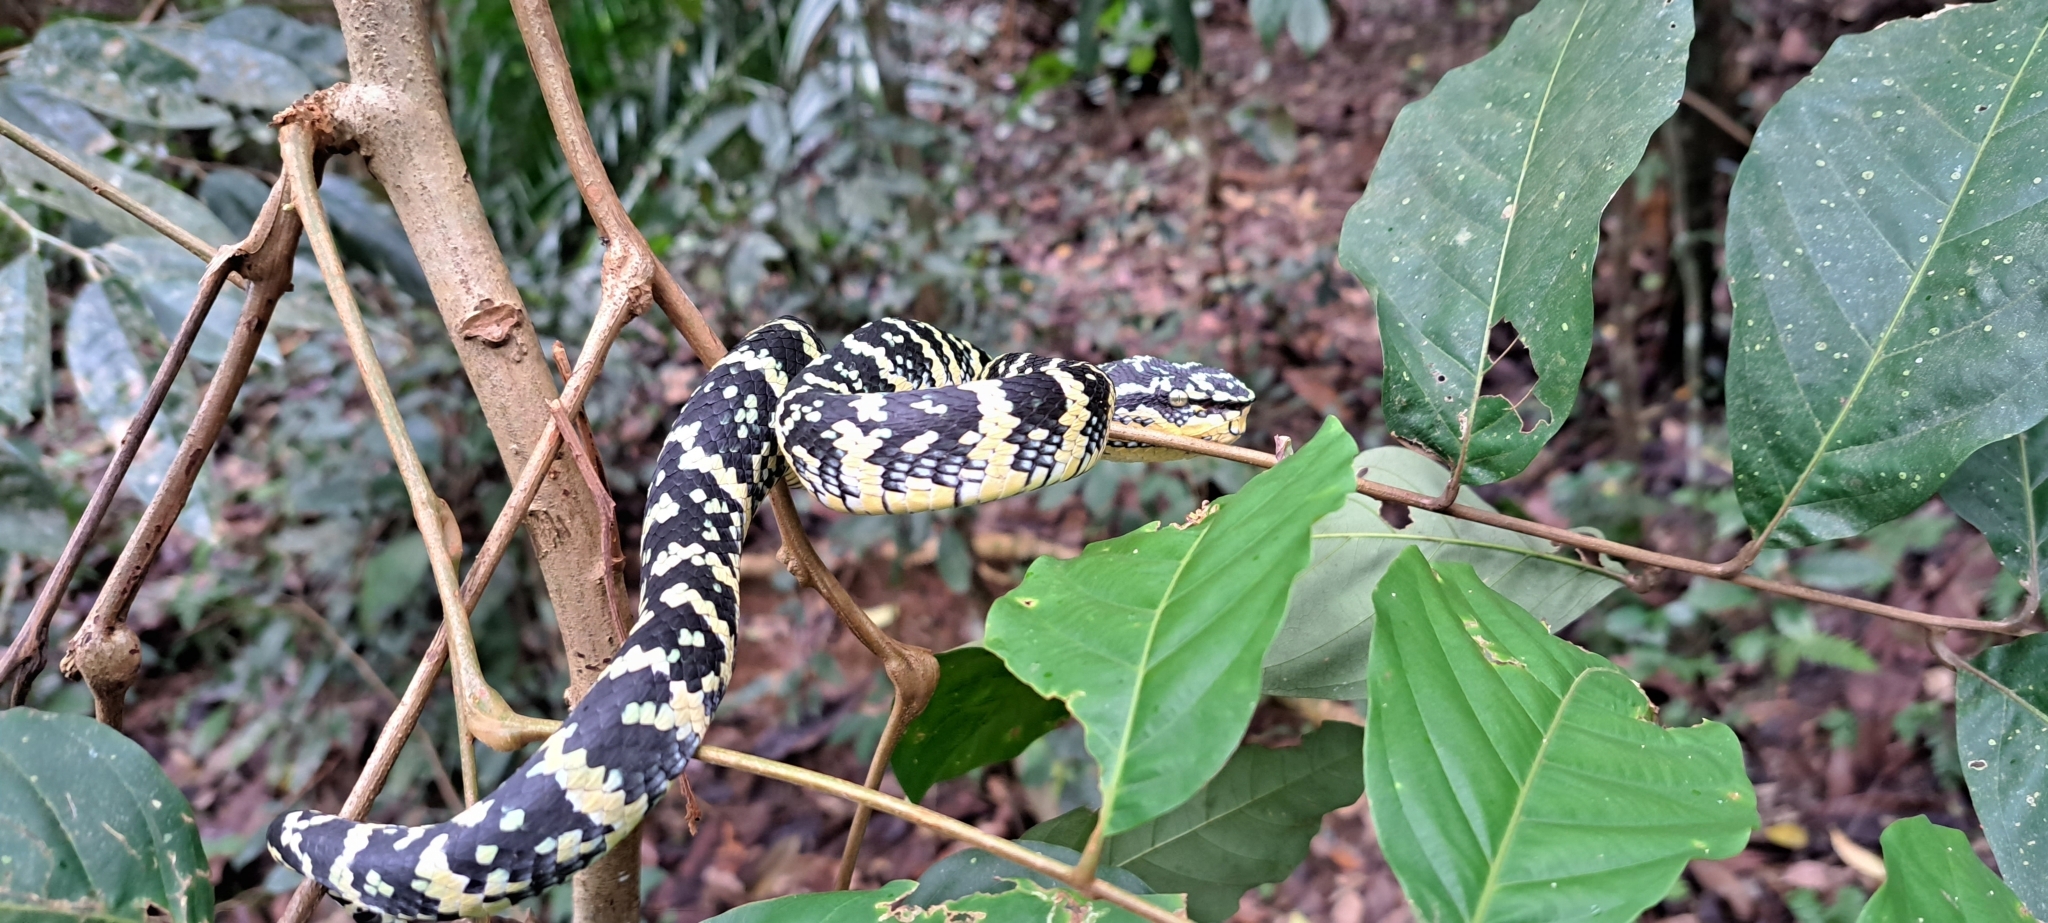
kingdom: Animalia
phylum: Chordata
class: Squamata
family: Viperidae
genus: Tropidolaemus
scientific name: Tropidolaemus wagleri
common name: Wagler's palm viper
